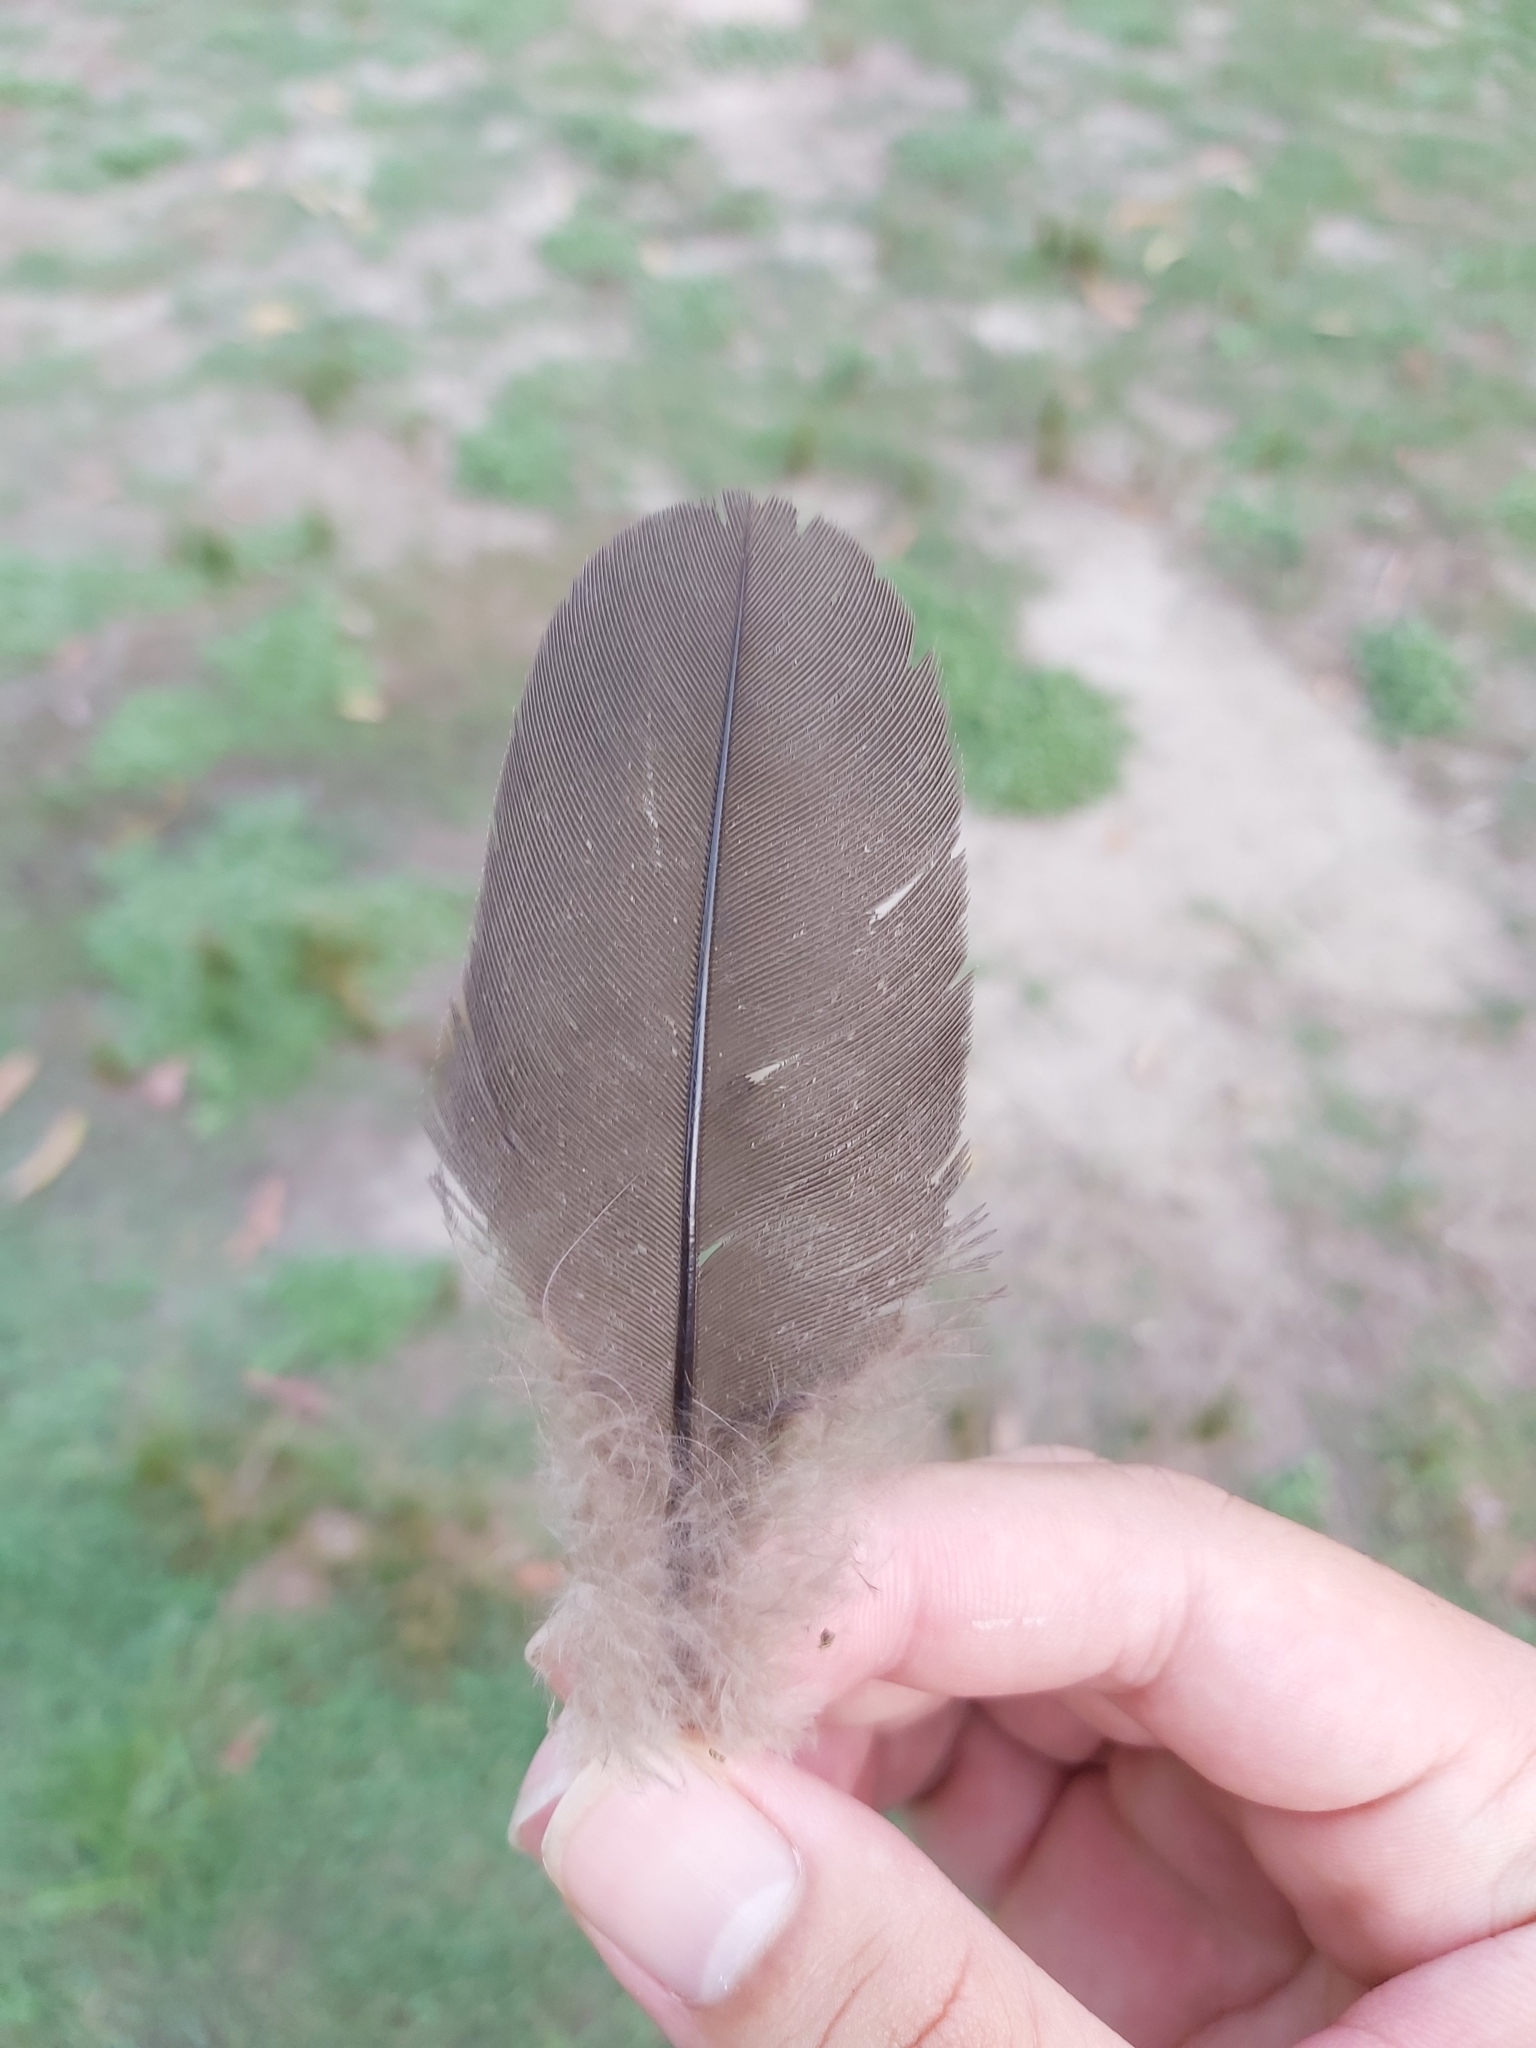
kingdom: Animalia
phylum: Chordata
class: Aves
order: Galliformes
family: Megapodiidae
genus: Alectura
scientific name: Alectura lathami
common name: Australian brushturkey
